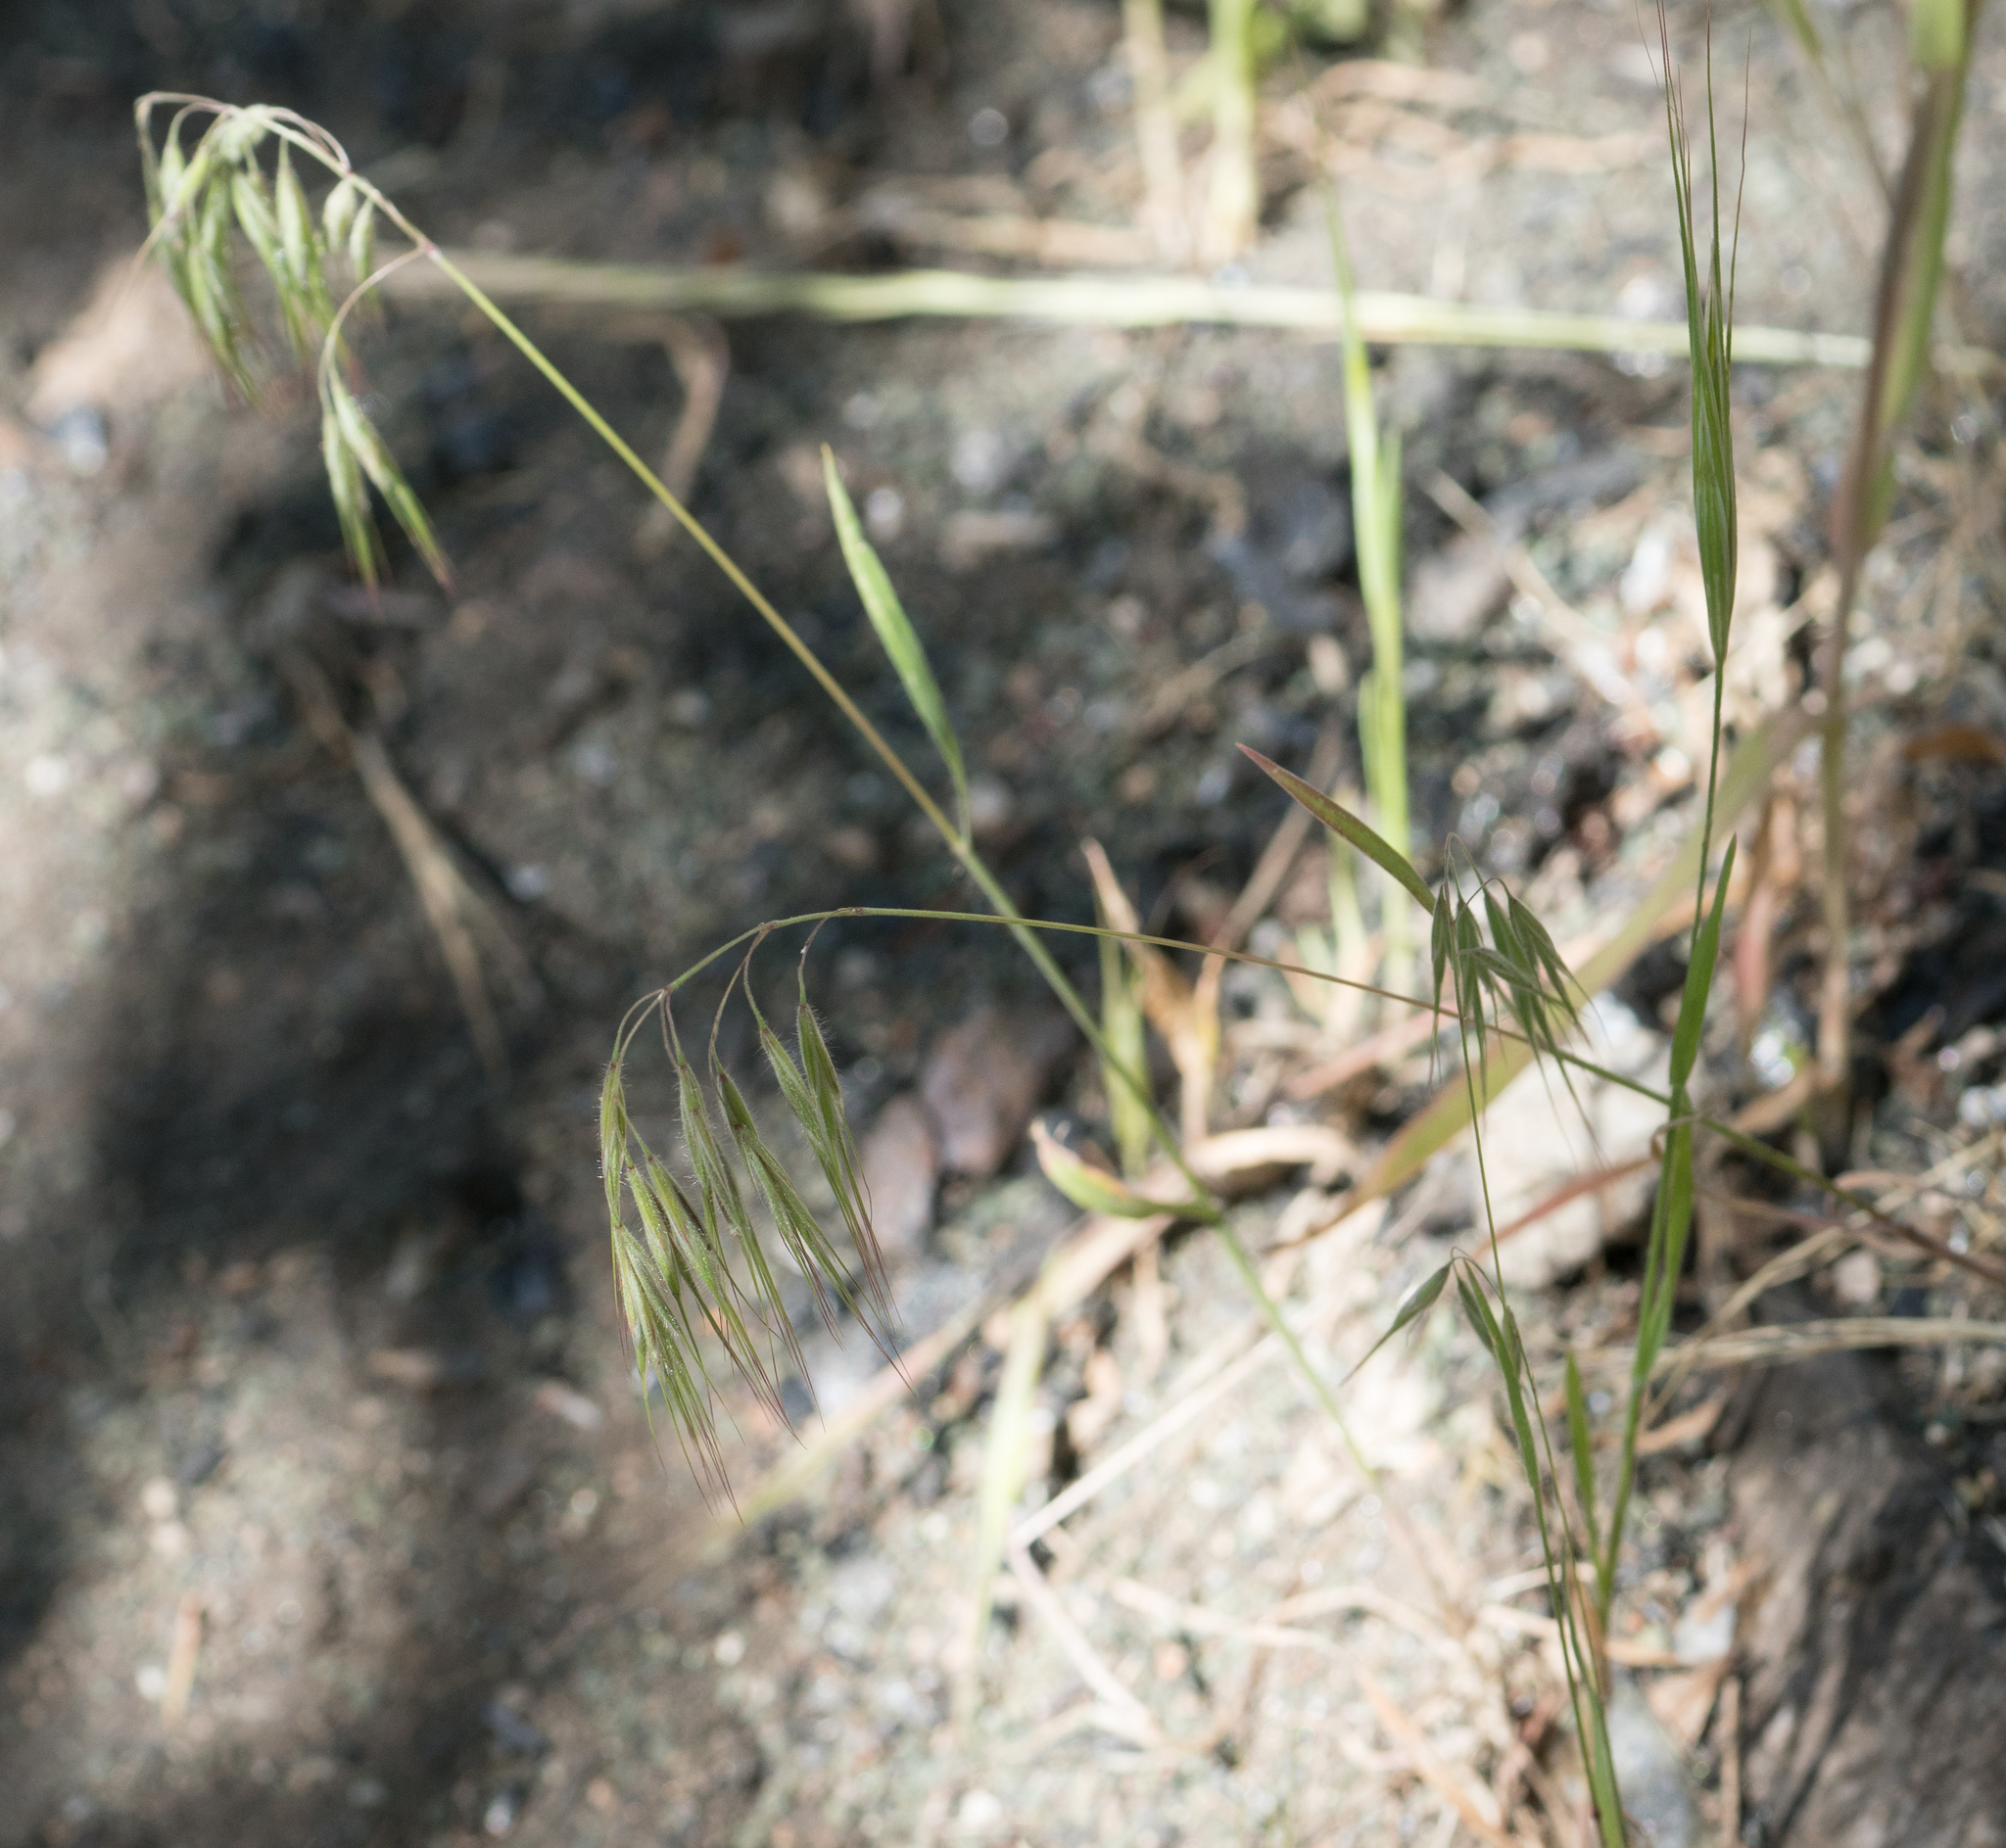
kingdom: Plantae
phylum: Tracheophyta
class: Liliopsida
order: Poales
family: Poaceae
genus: Bromus
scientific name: Bromus tectorum
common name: Cheatgrass
